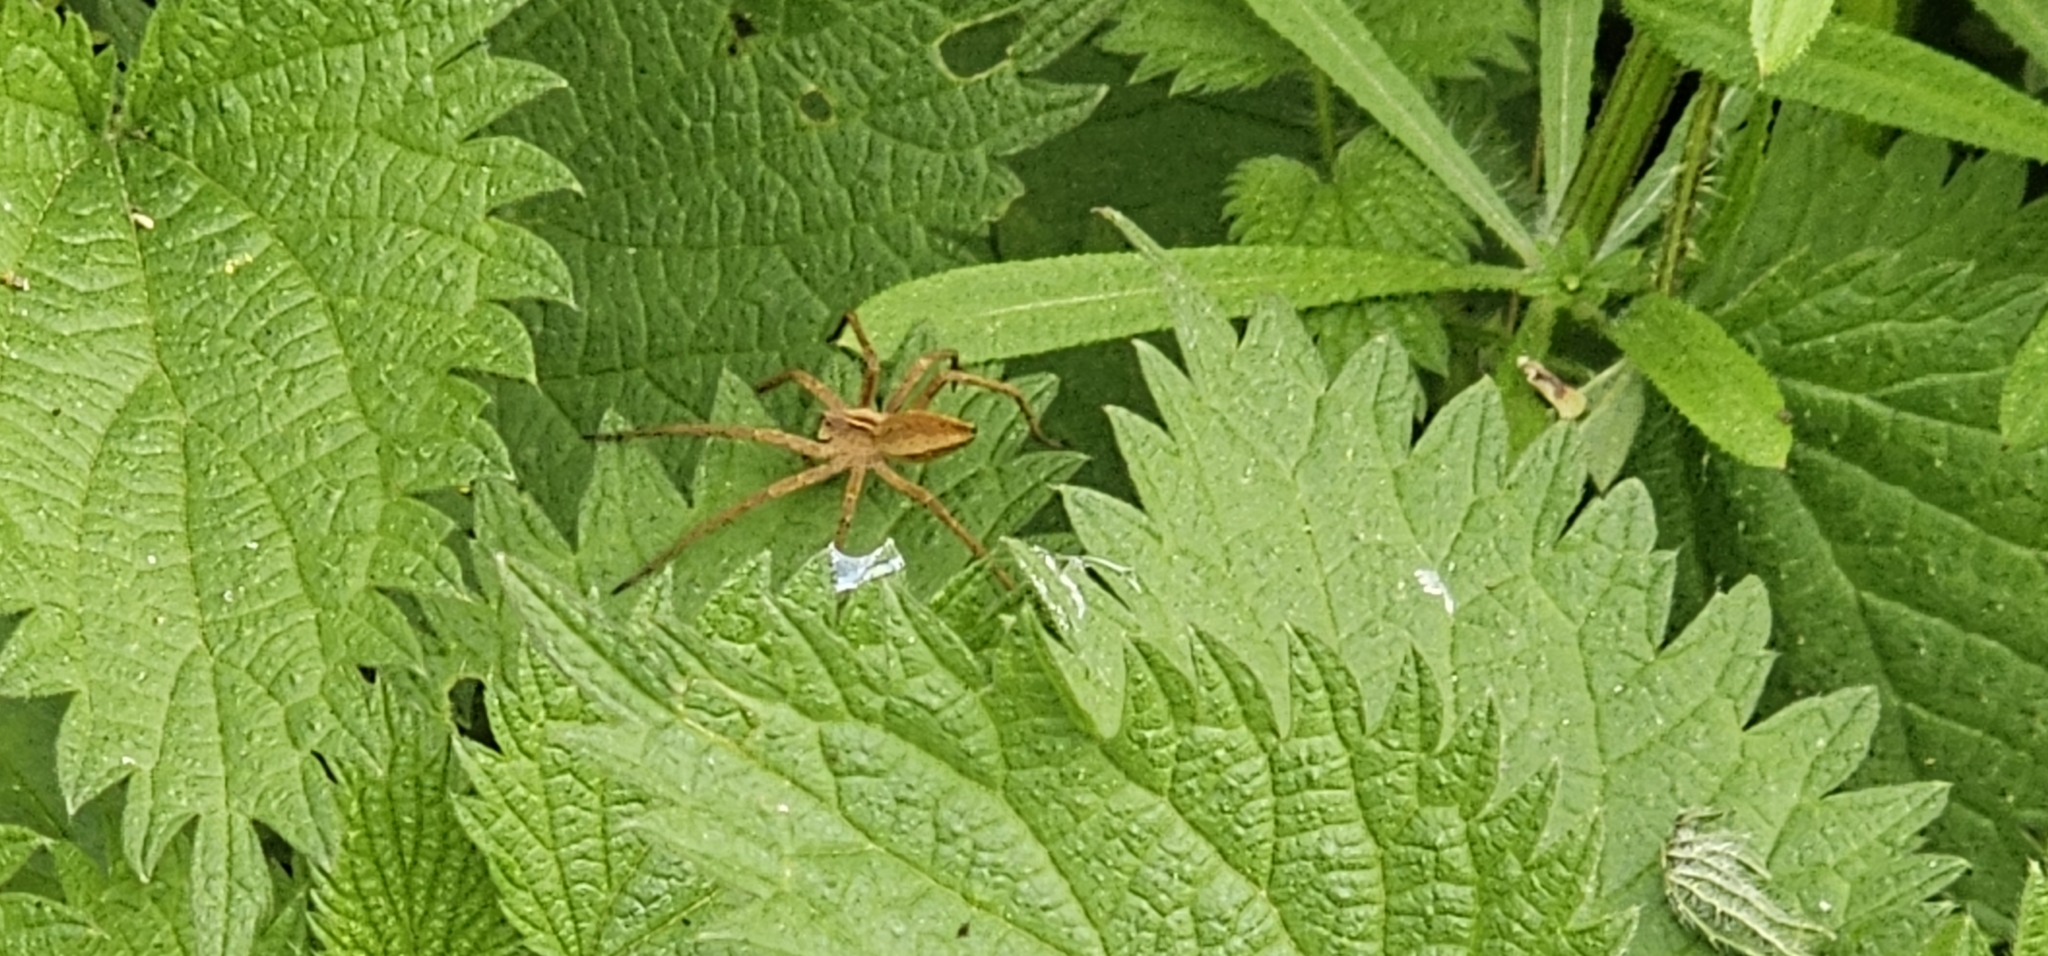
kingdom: Animalia
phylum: Arthropoda
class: Arachnida
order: Araneae
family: Pisauridae
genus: Pisaura
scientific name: Pisaura mirabilis
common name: Tent spider
